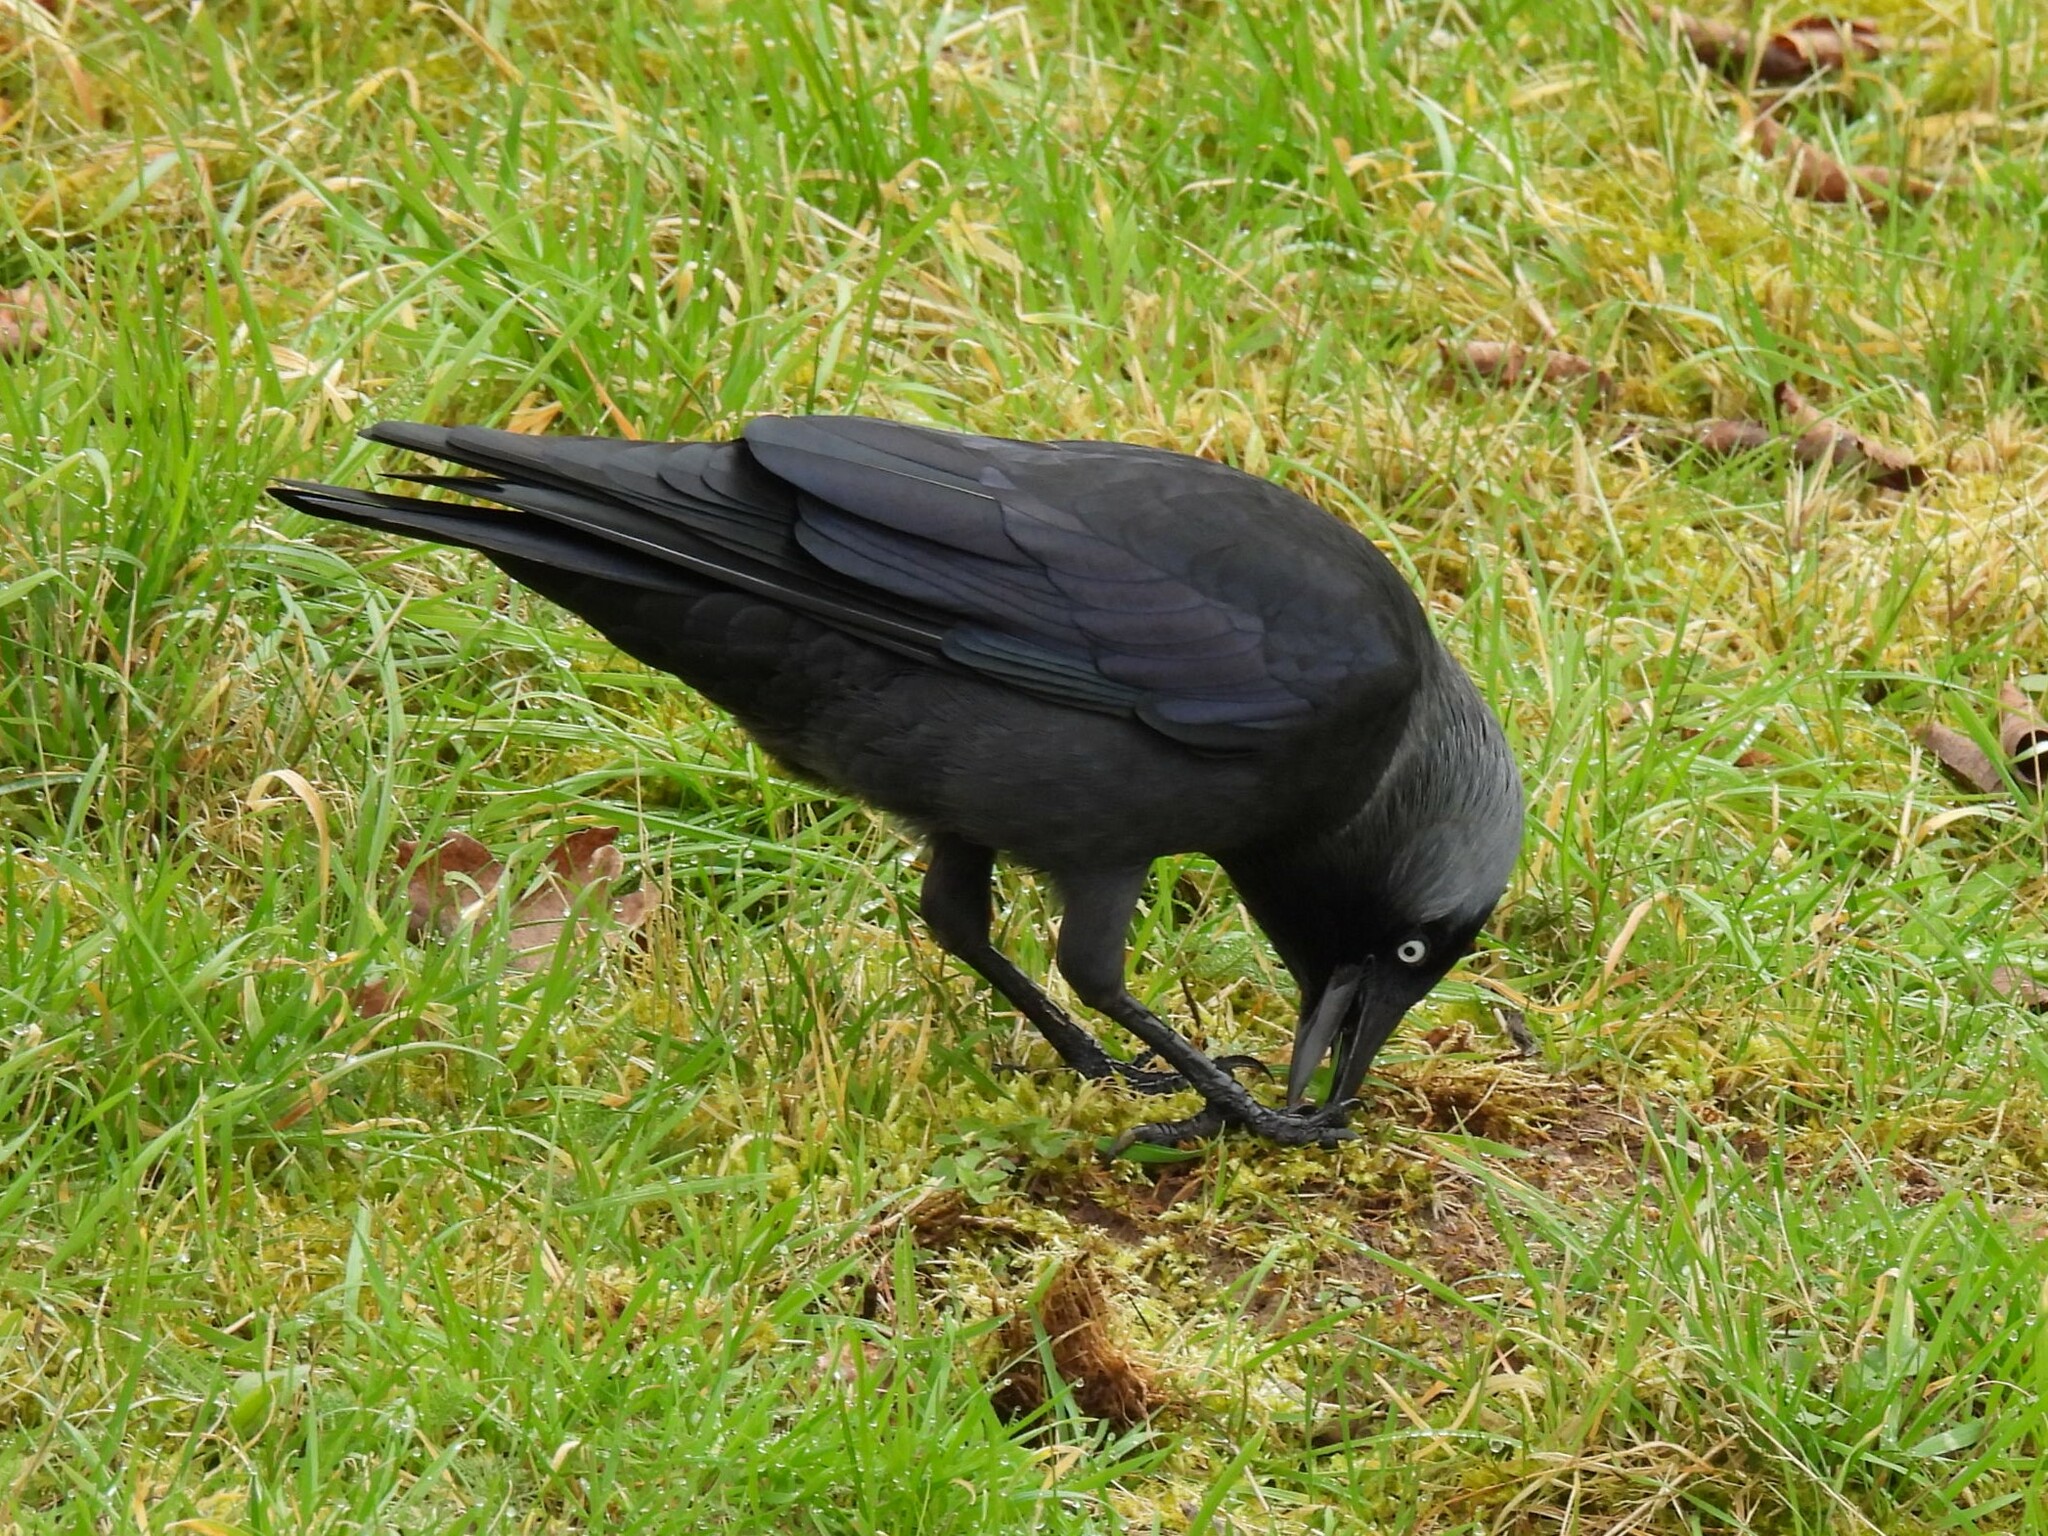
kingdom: Animalia
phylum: Chordata
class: Aves
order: Passeriformes
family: Corvidae
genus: Coloeus
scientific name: Coloeus monedula
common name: Western jackdaw
